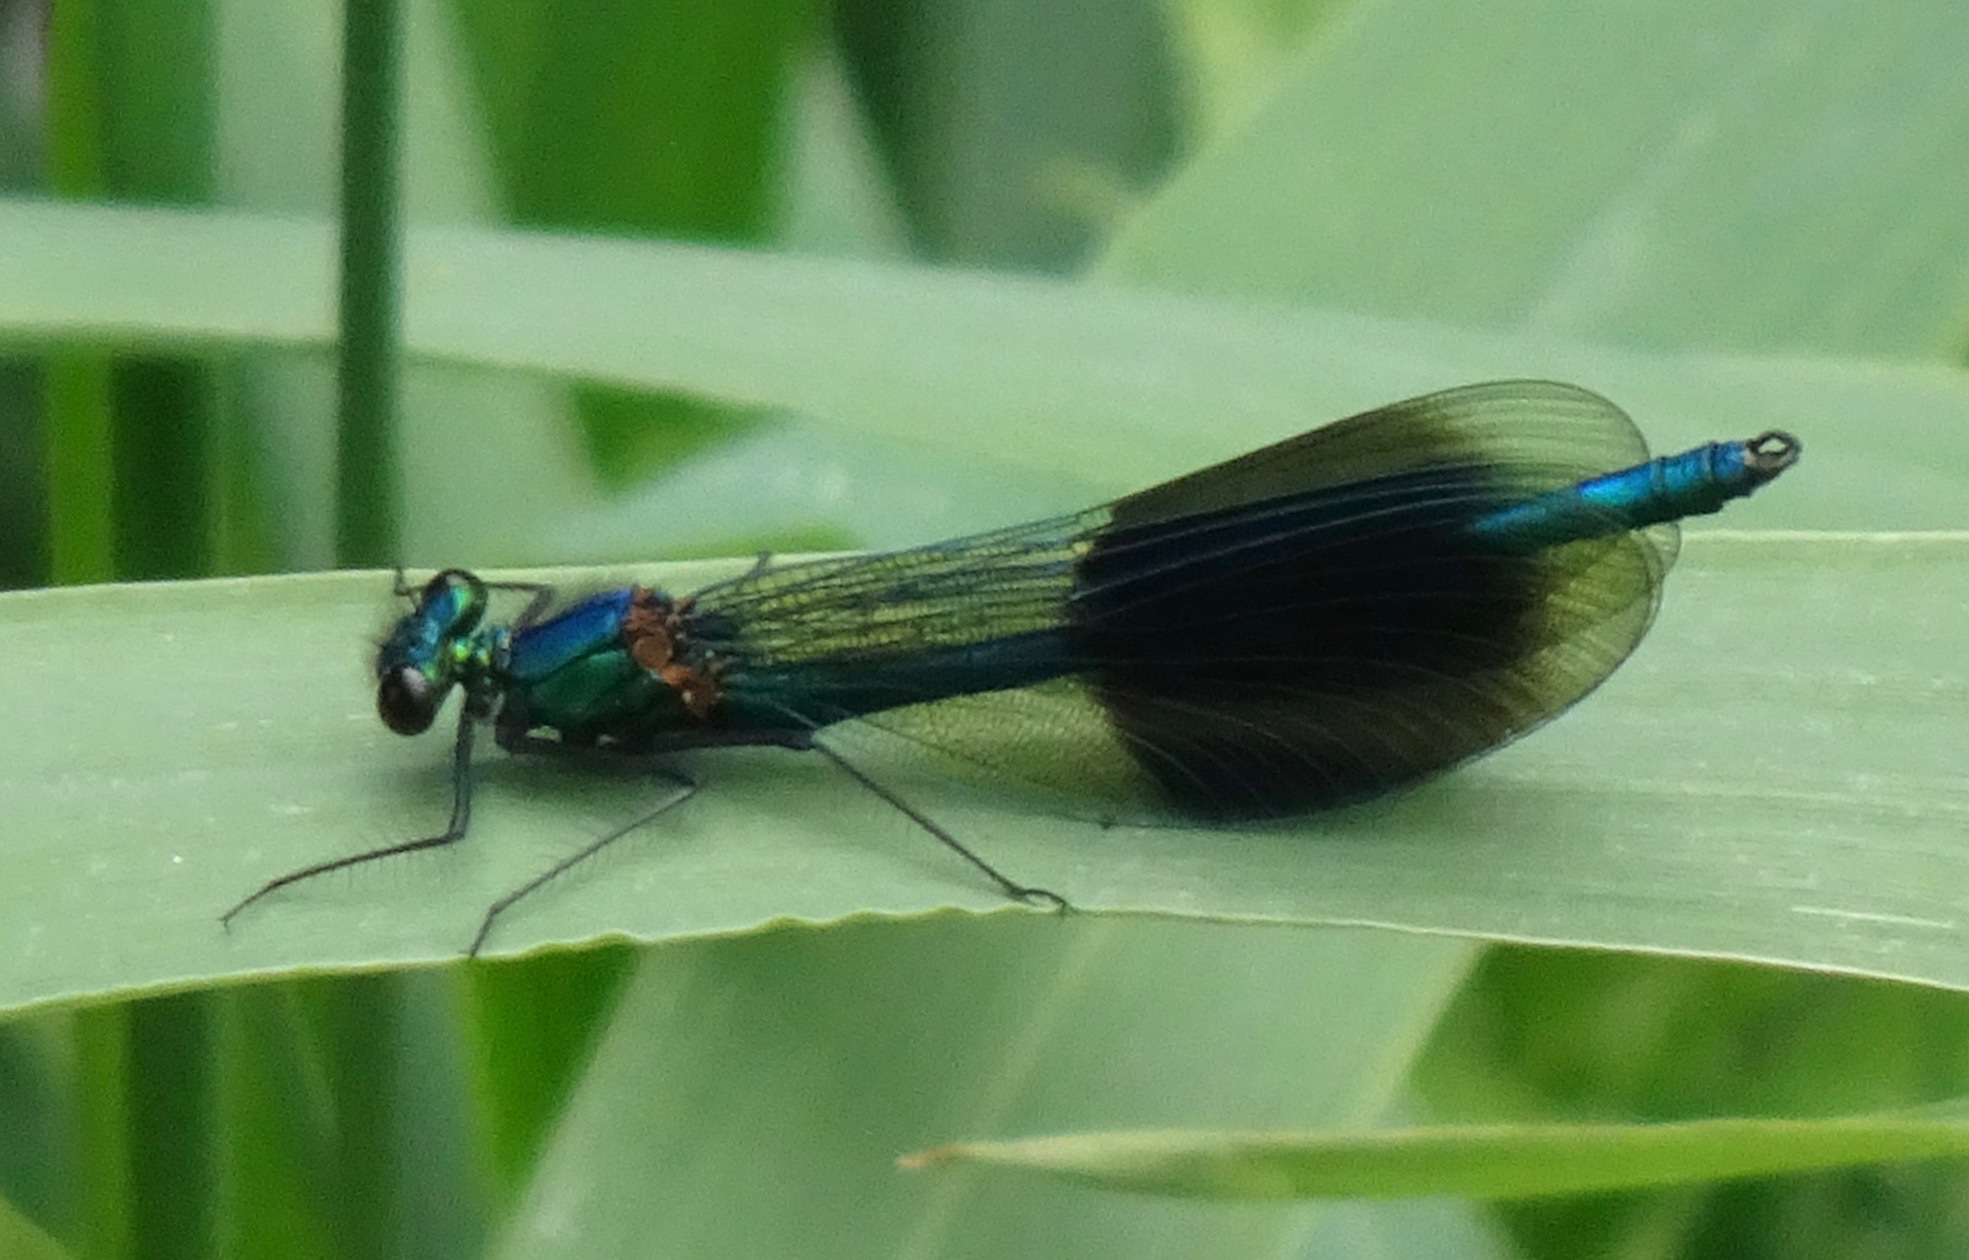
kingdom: Animalia
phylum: Arthropoda
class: Insecta
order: Odonata
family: Calopterygidae
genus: Calopteryx
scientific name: Calopteryx splendens
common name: Banded demoiselle
